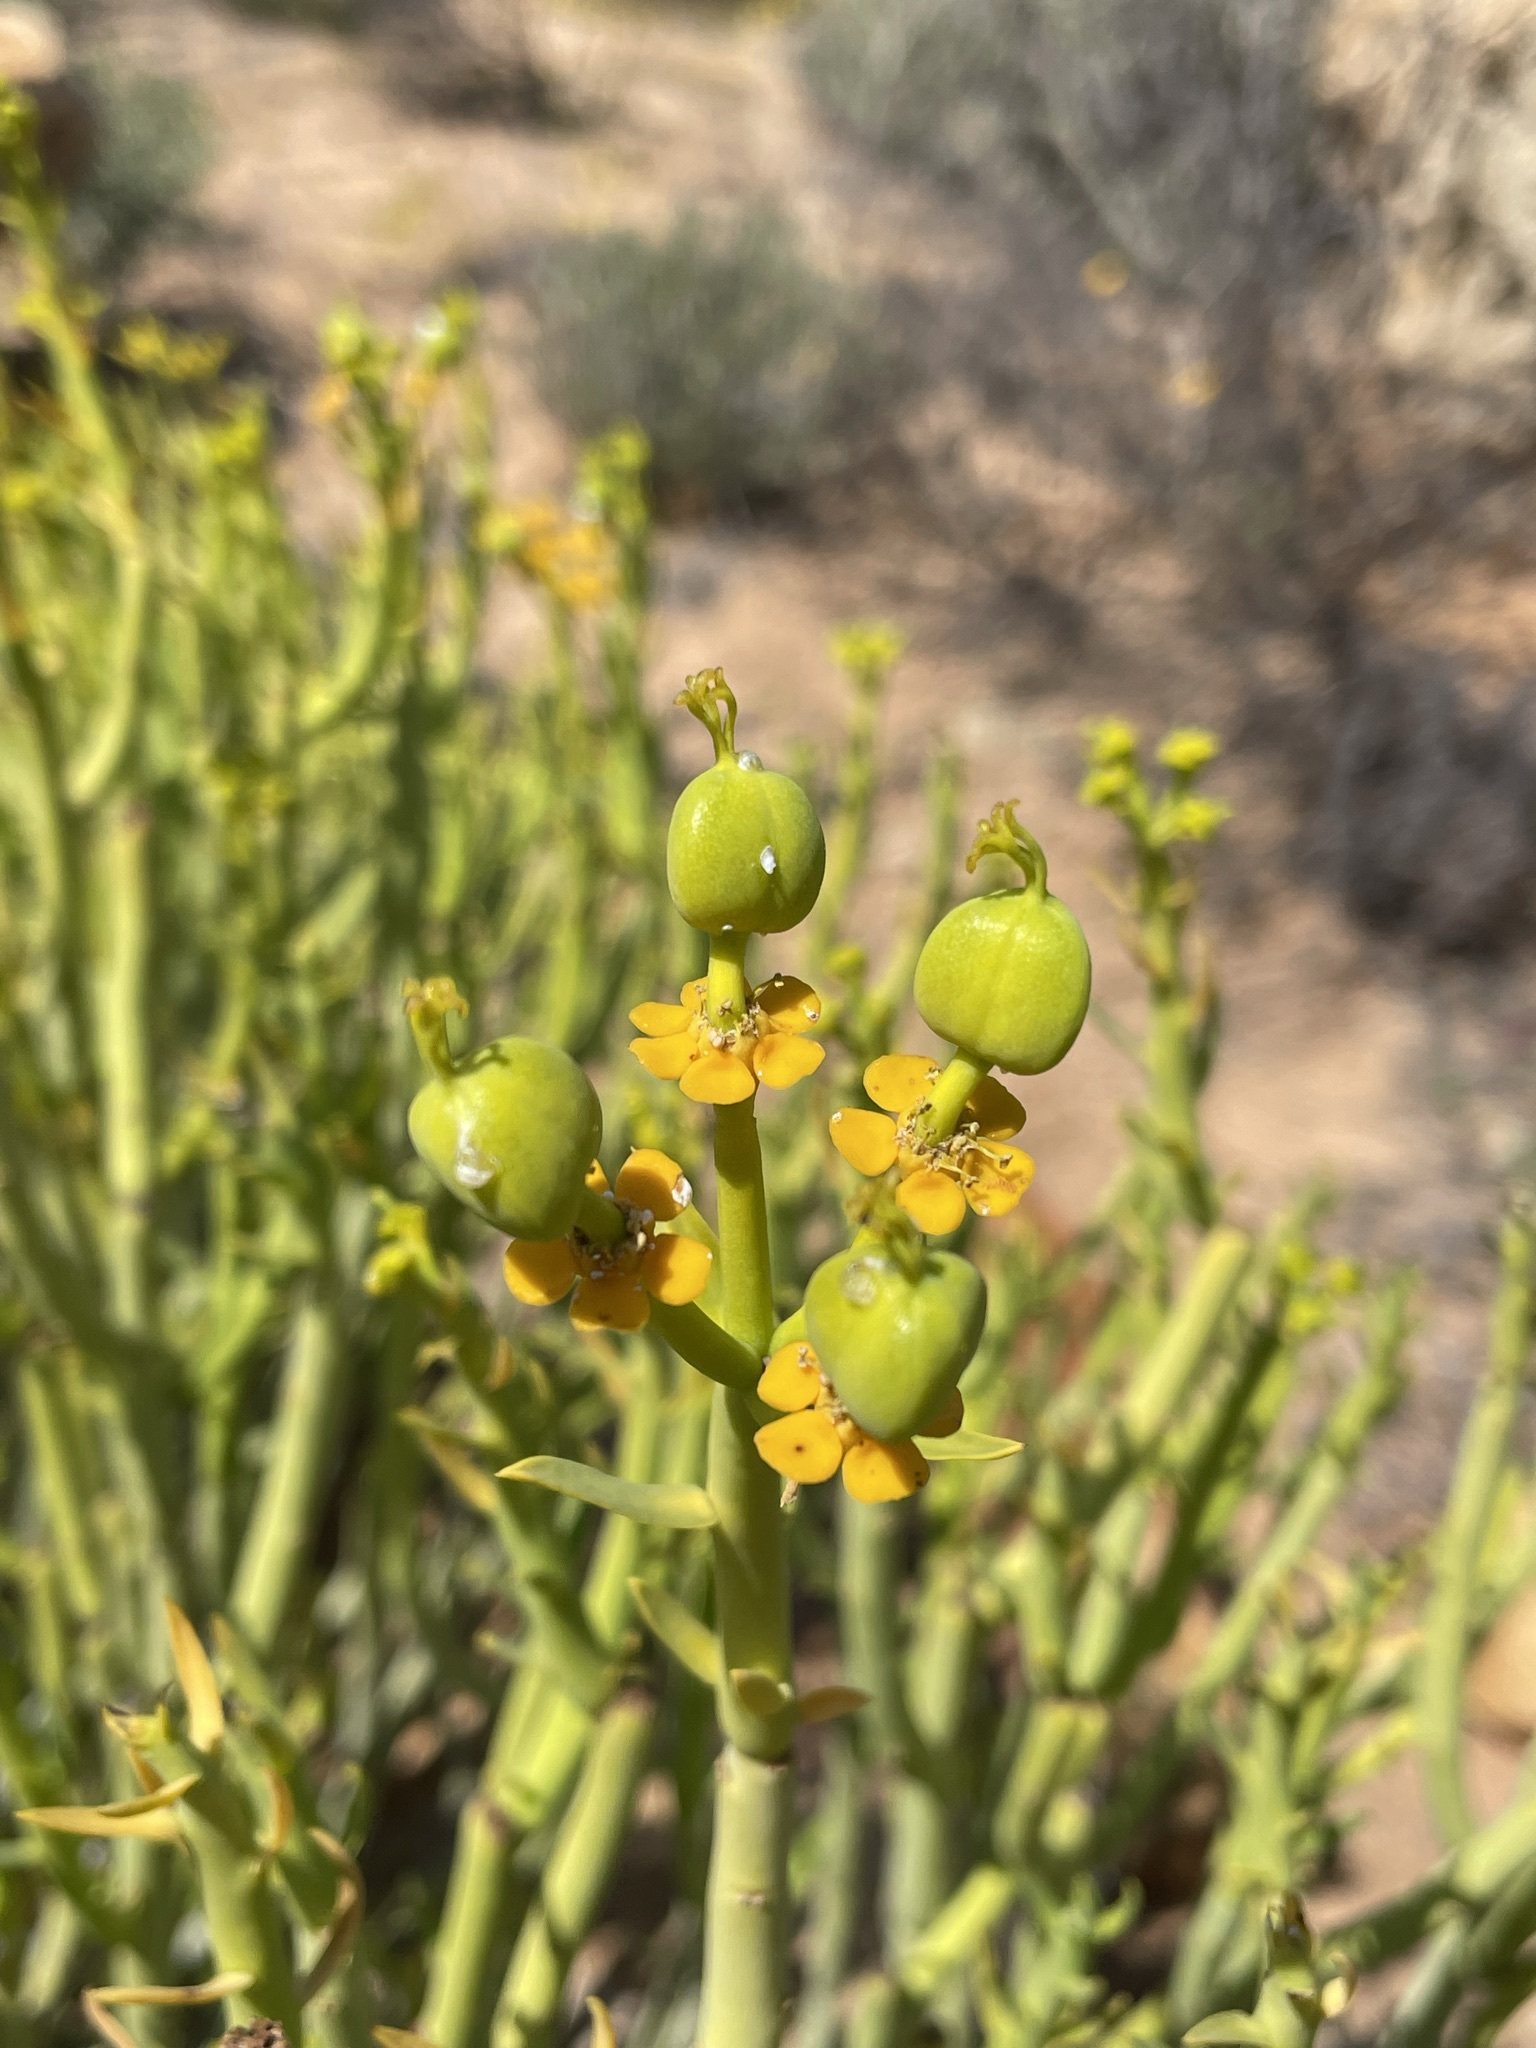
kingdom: Plantae
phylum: Tracheophyta
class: Magnoliopsida
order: Malpighiales
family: Euphorbiaceae
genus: Euphorbia
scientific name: Euphorbia mauritanica
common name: Jackal's-food
